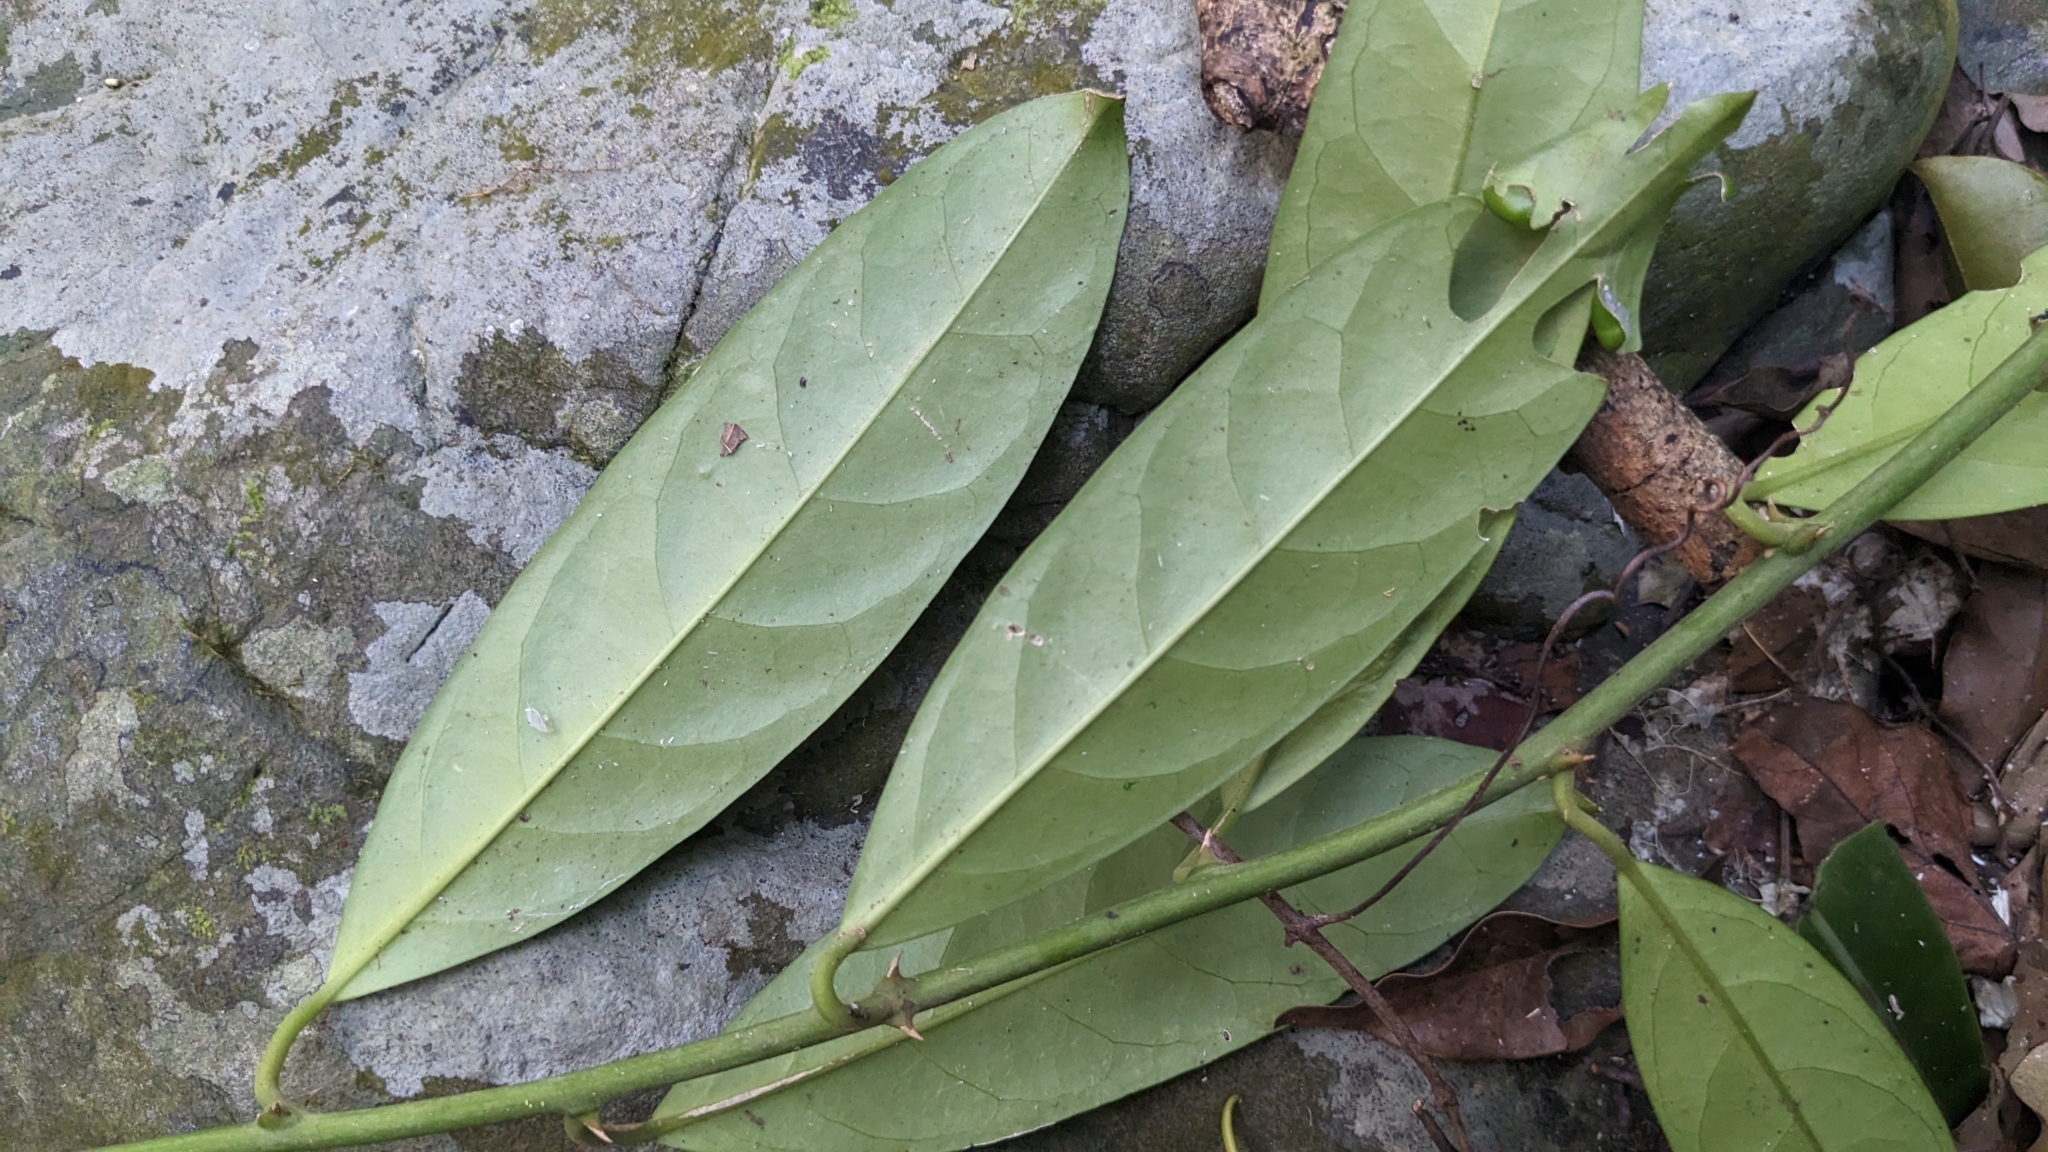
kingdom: Plantae
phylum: Tracheophyta
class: Magnoliopsida
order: Brassicales
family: Capparaceae
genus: Capparis
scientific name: Capparis micracantha
